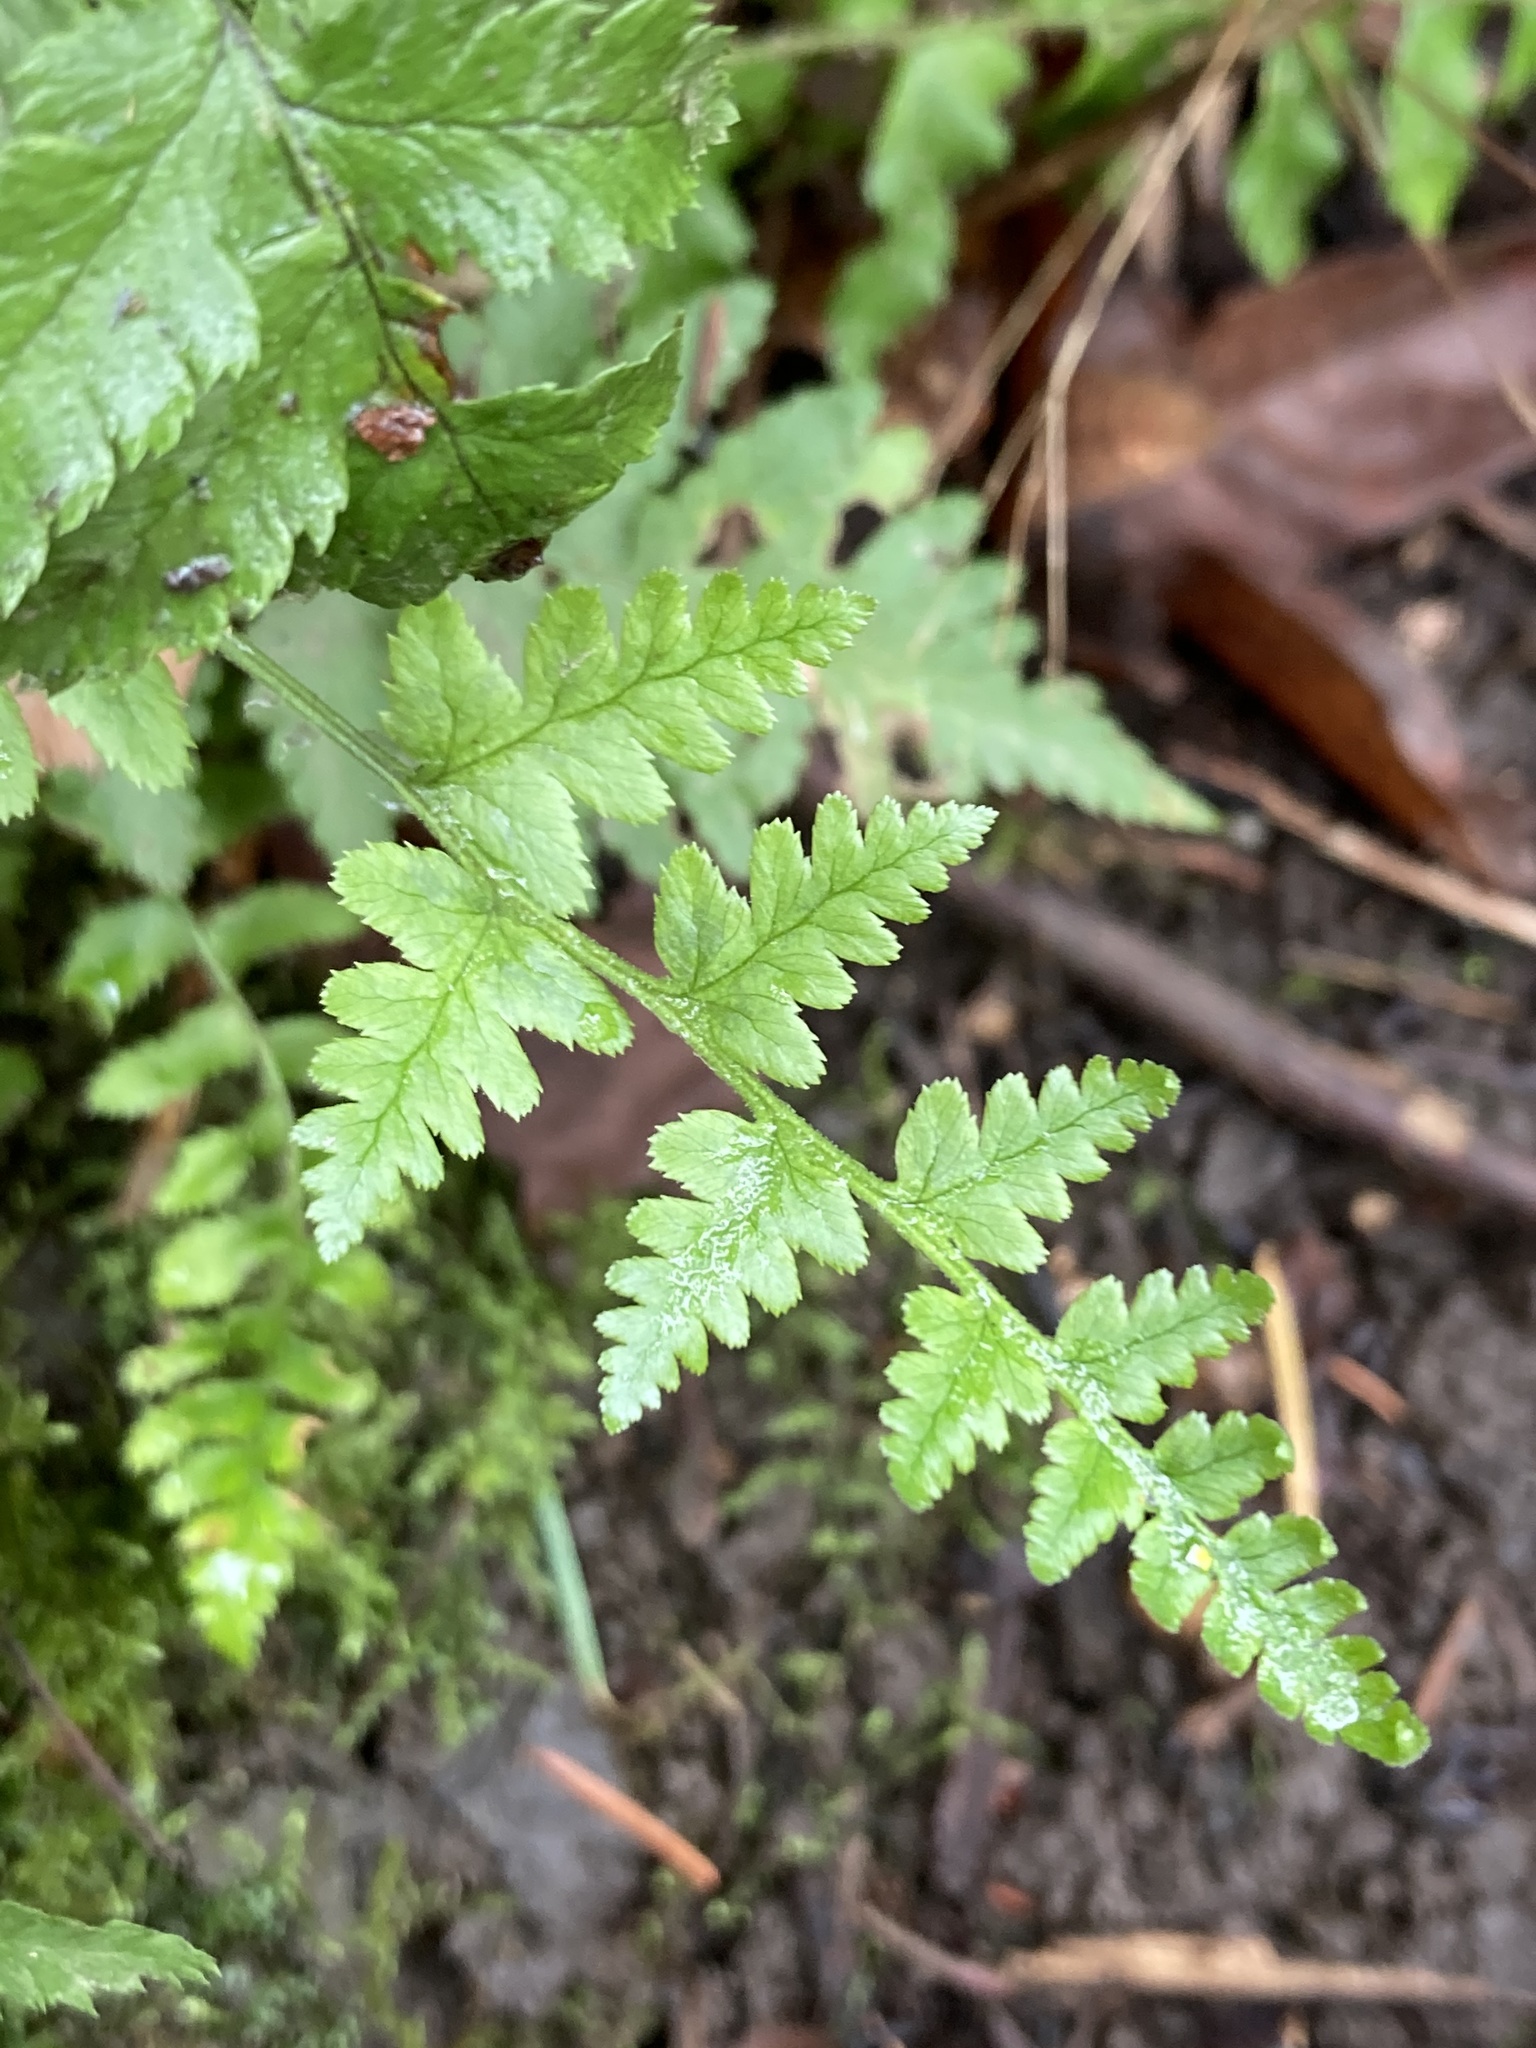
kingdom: Plantae
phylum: Tracheophyta
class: Polypodiopsida
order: Polypodiales
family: Dryopteridaceae
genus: Dryopteris
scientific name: Dryopteris arguta
